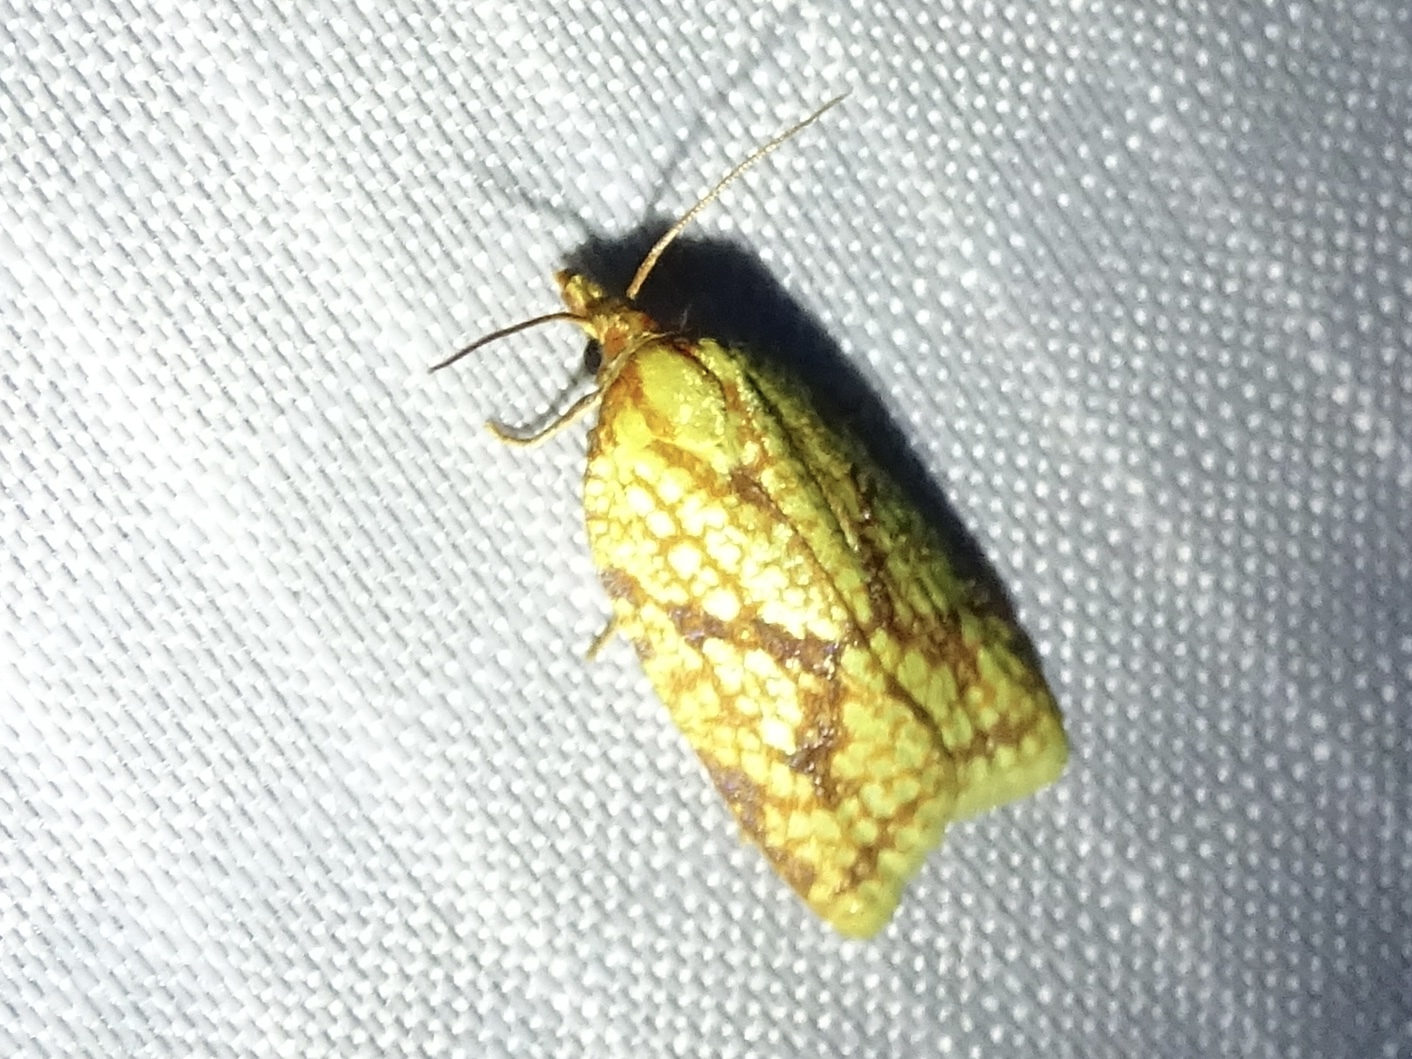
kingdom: Animalia
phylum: Arthropoda
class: Insecta
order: Lepidoptera
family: Tortricidae
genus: Sparganothis
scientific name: Sparganothis sulfureana
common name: Sparganothis fruitworm moth
